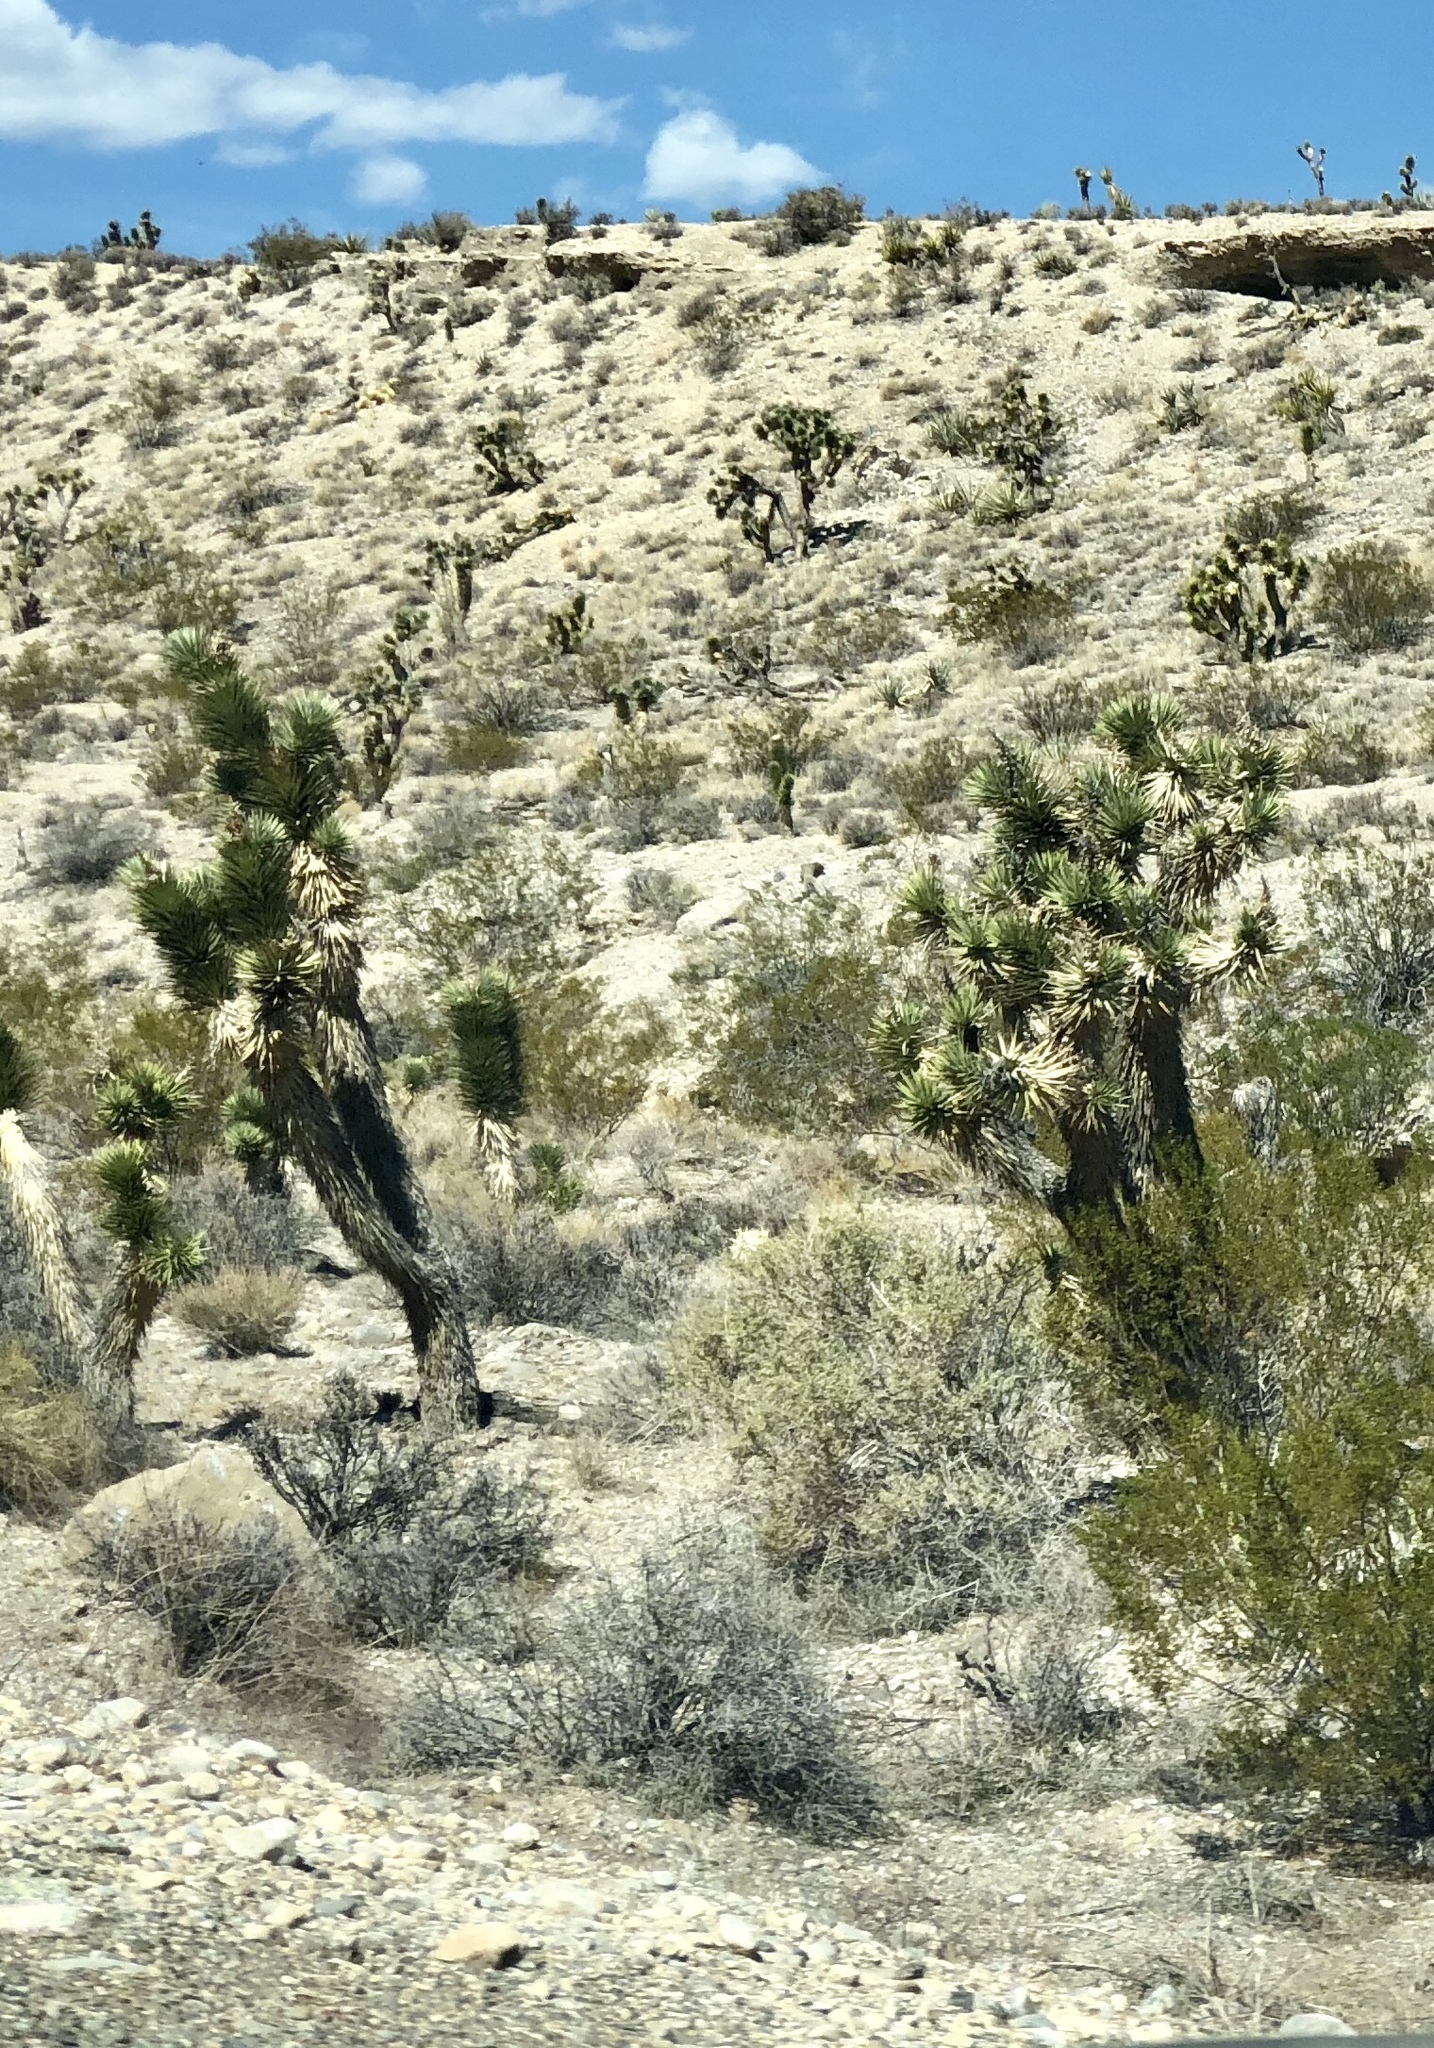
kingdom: Plantae
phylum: Tracheophyta
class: Liliopsida
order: Asparagales
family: Asparagaceae
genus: Yucca
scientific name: Yucca brevifolia
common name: Joshua tree
